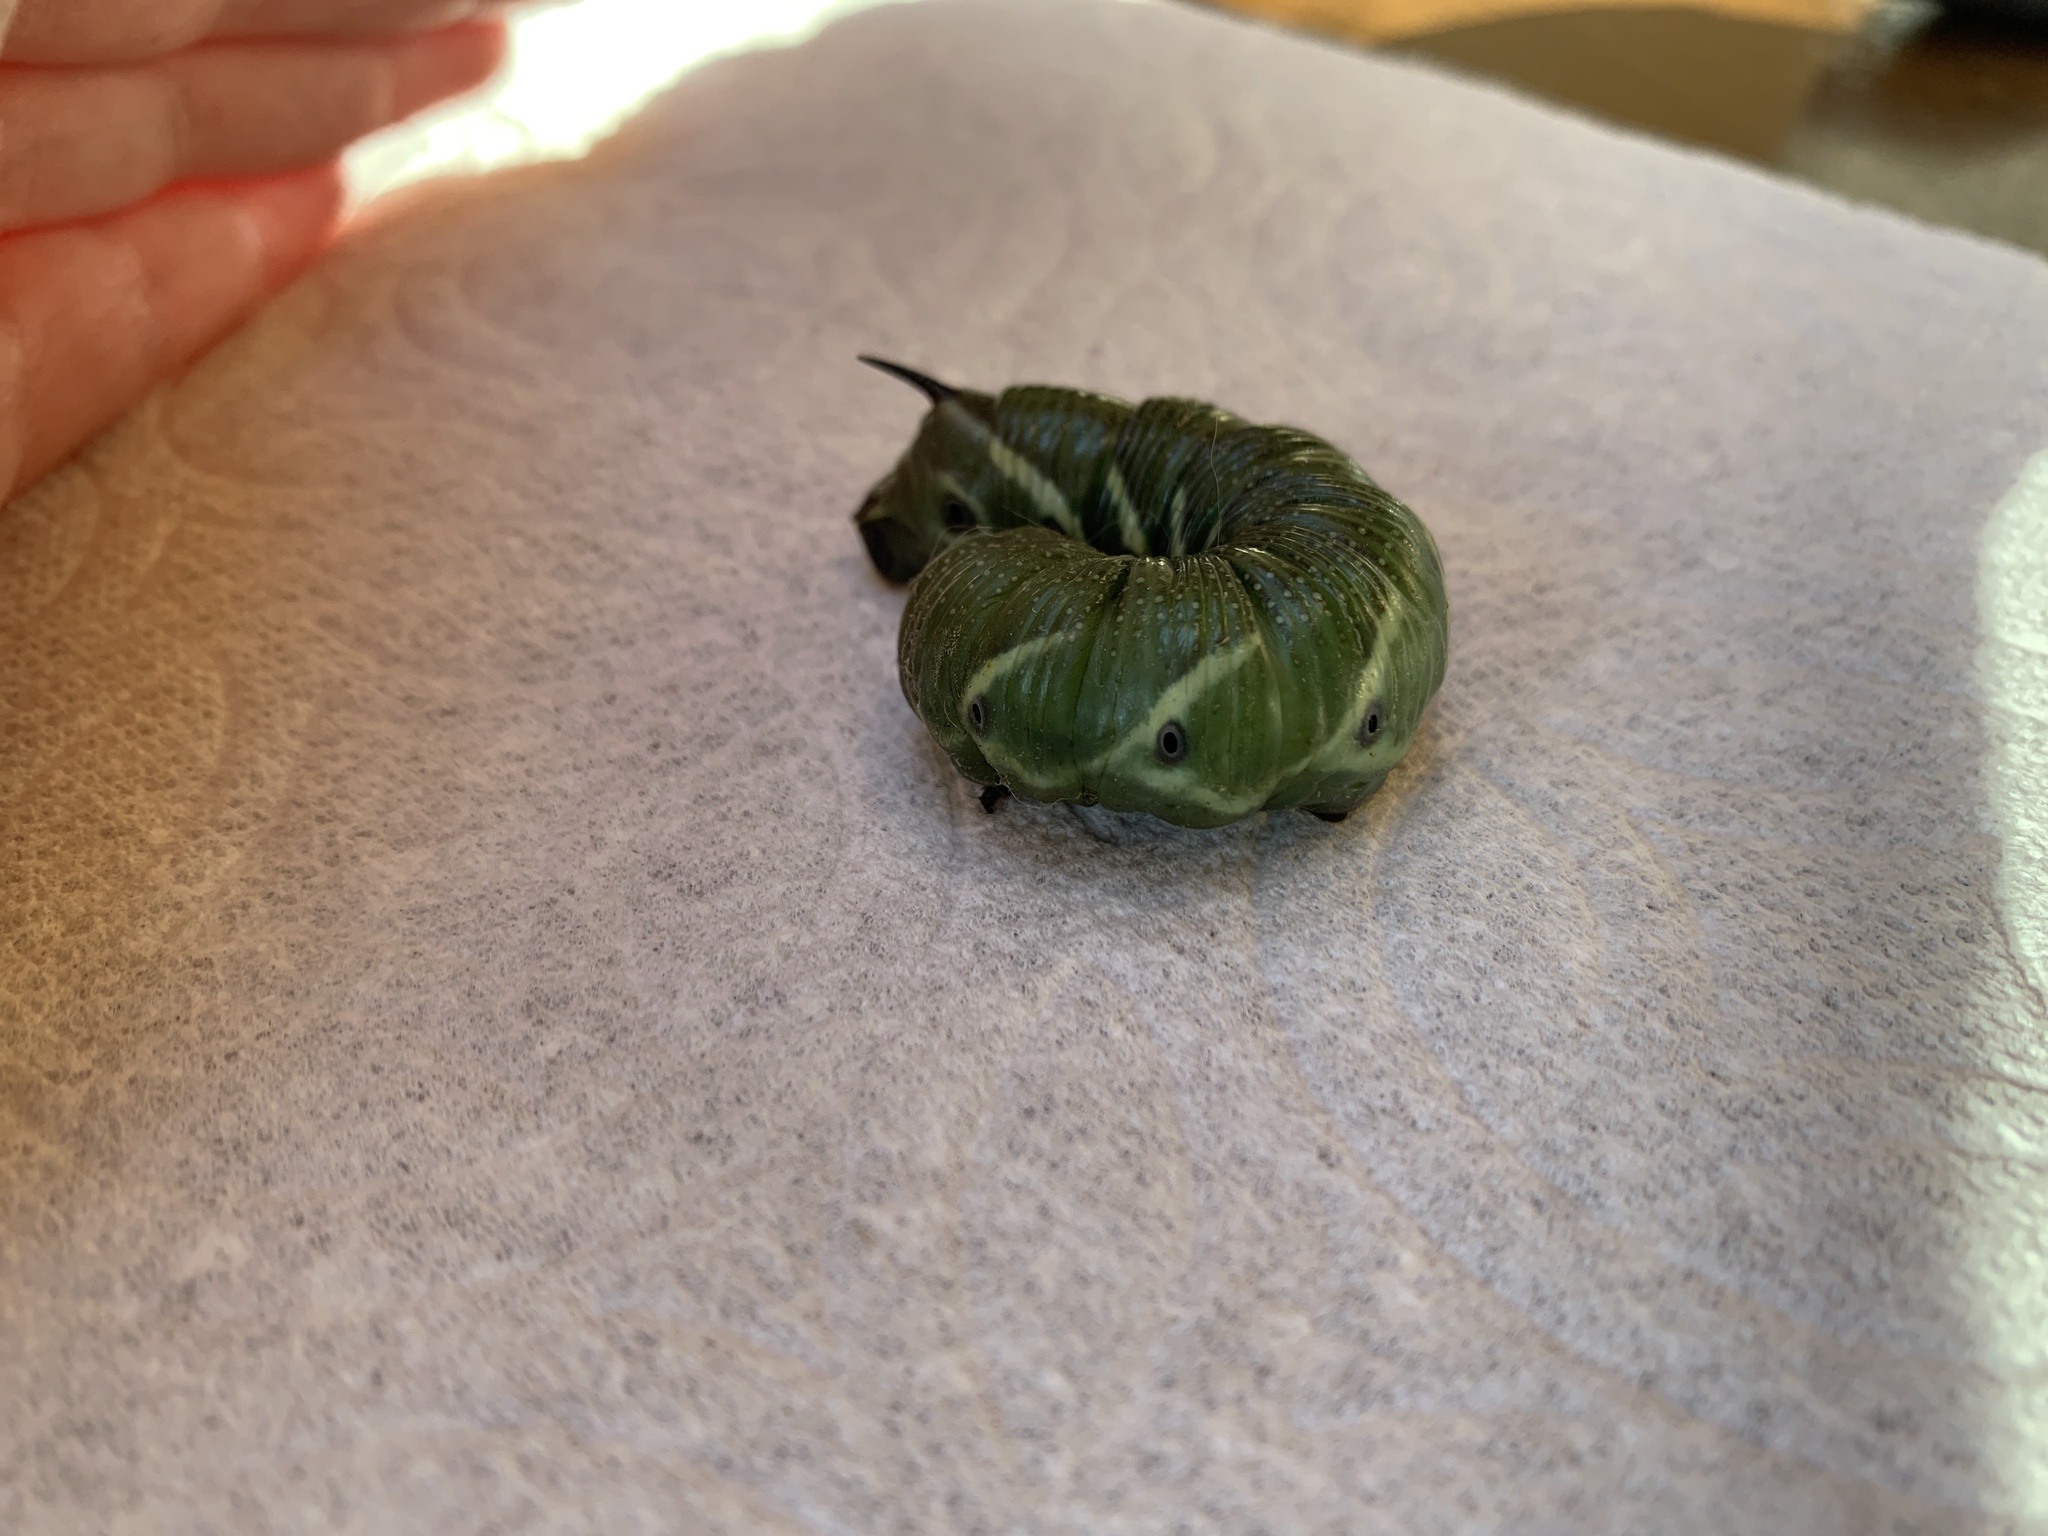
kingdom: Animalia
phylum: Arthropoda
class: Insecta
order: Lepidoptera
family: Sphingidae
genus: Manduca
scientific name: Manduca quinquemaculatus
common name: Five-spotted hawk-moth
